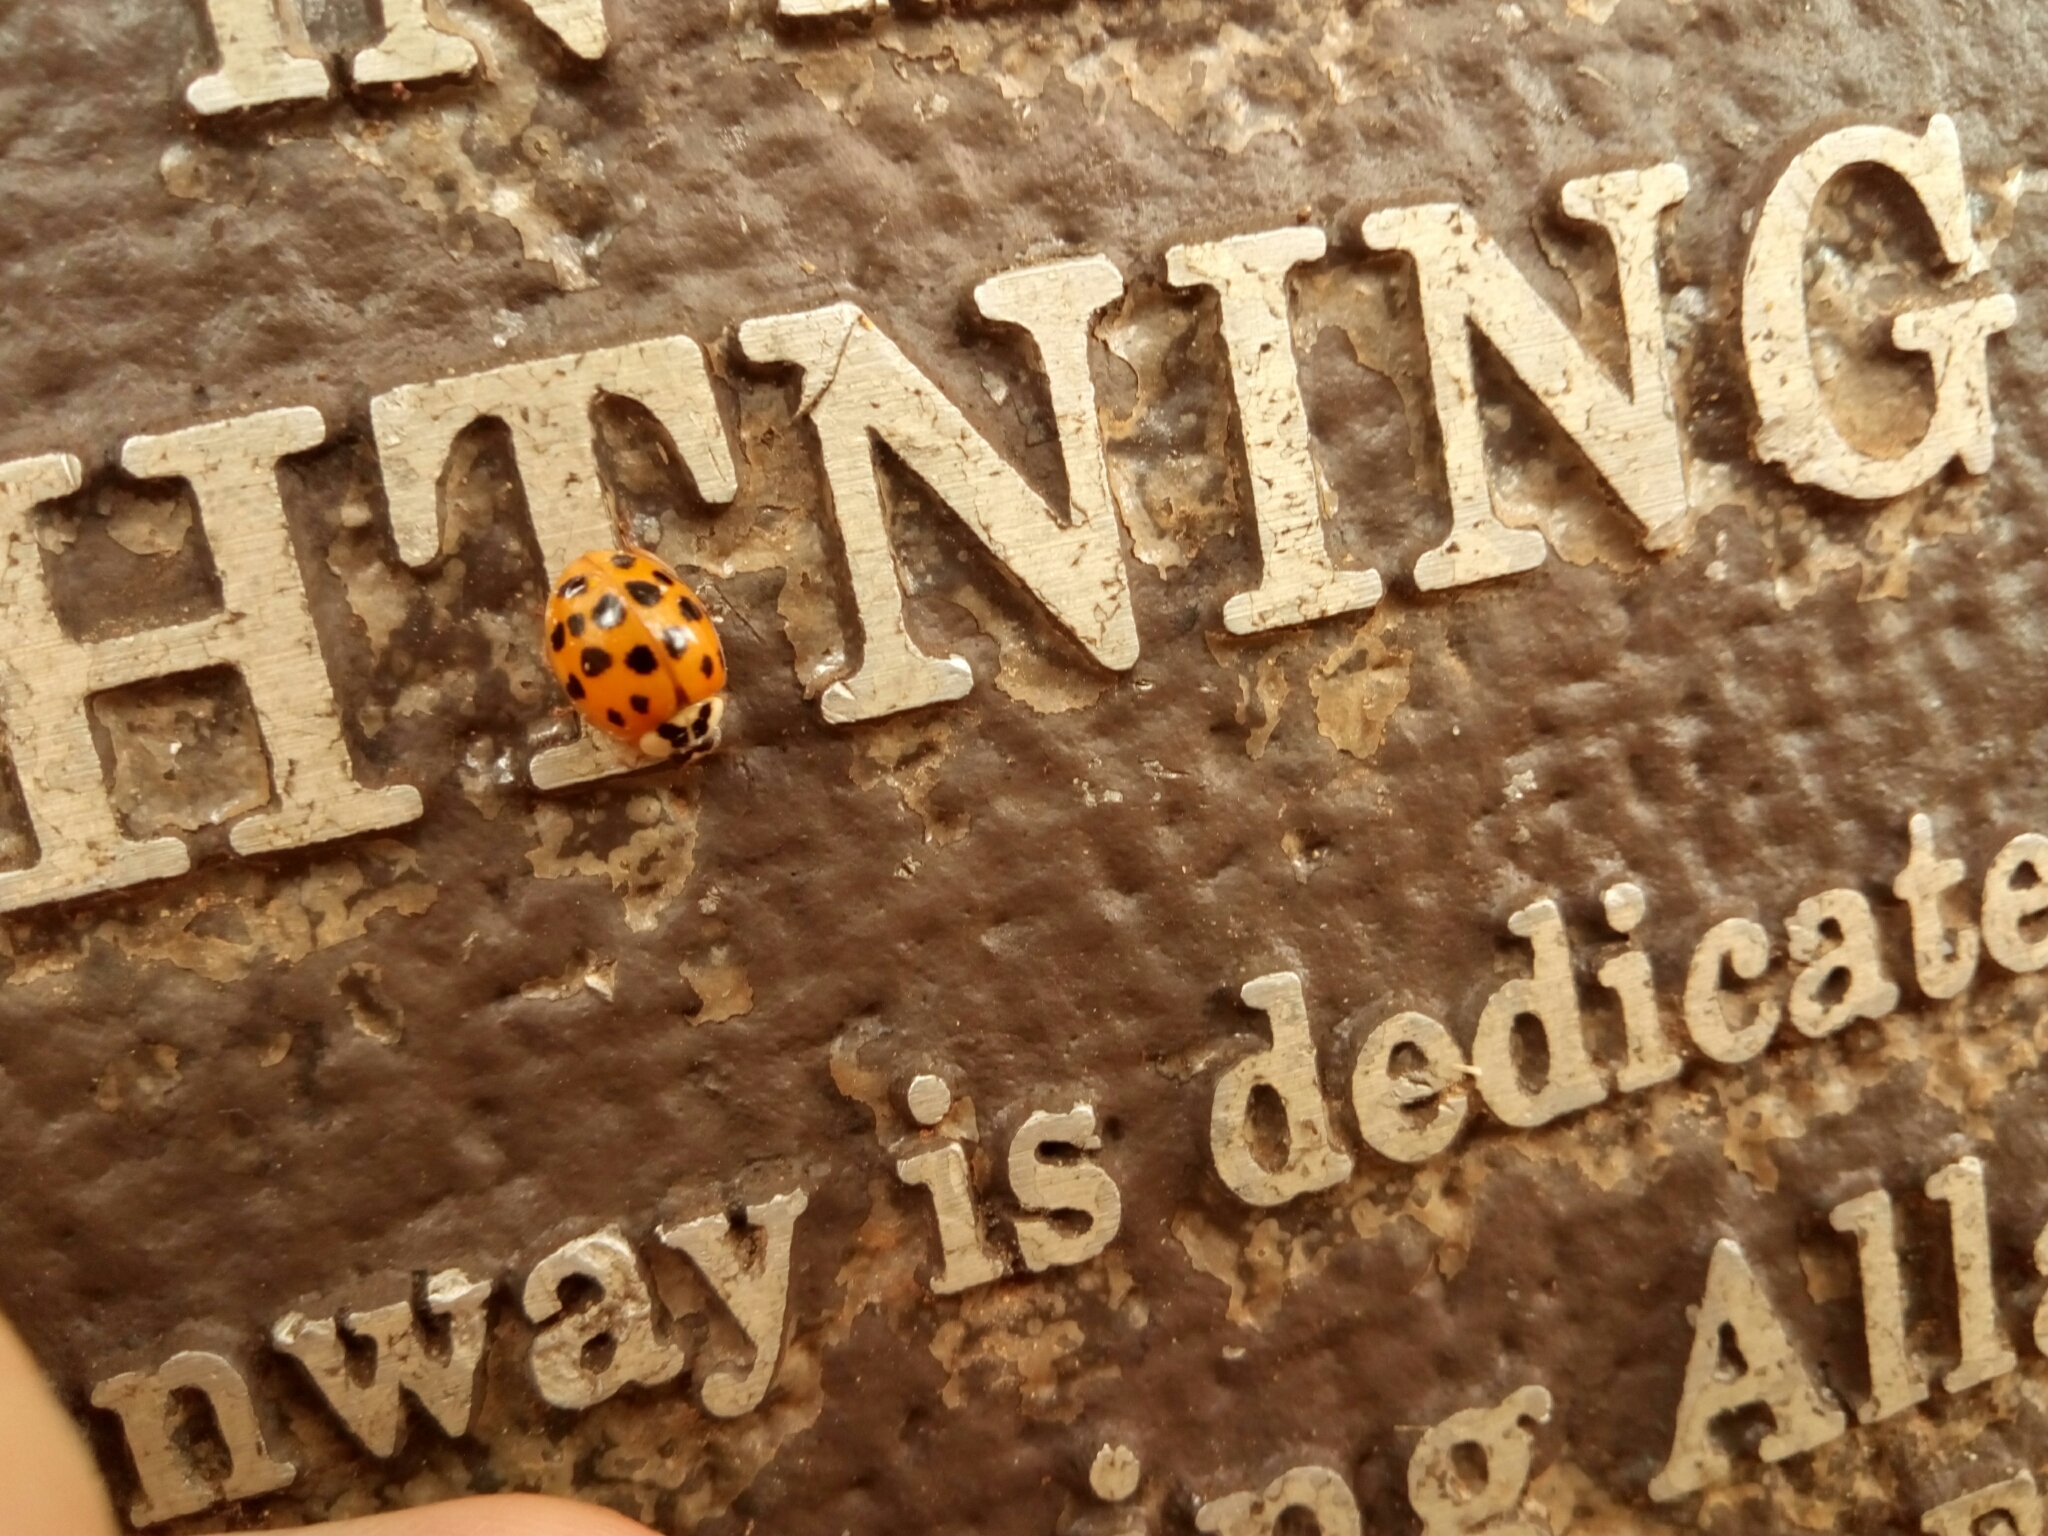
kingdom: Animalia
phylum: Arthropoda
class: Insecta
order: Coleoptera
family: Coccinellidae
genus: Harmonia
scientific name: Harmonia axyridis
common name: Harlequin ladybird
